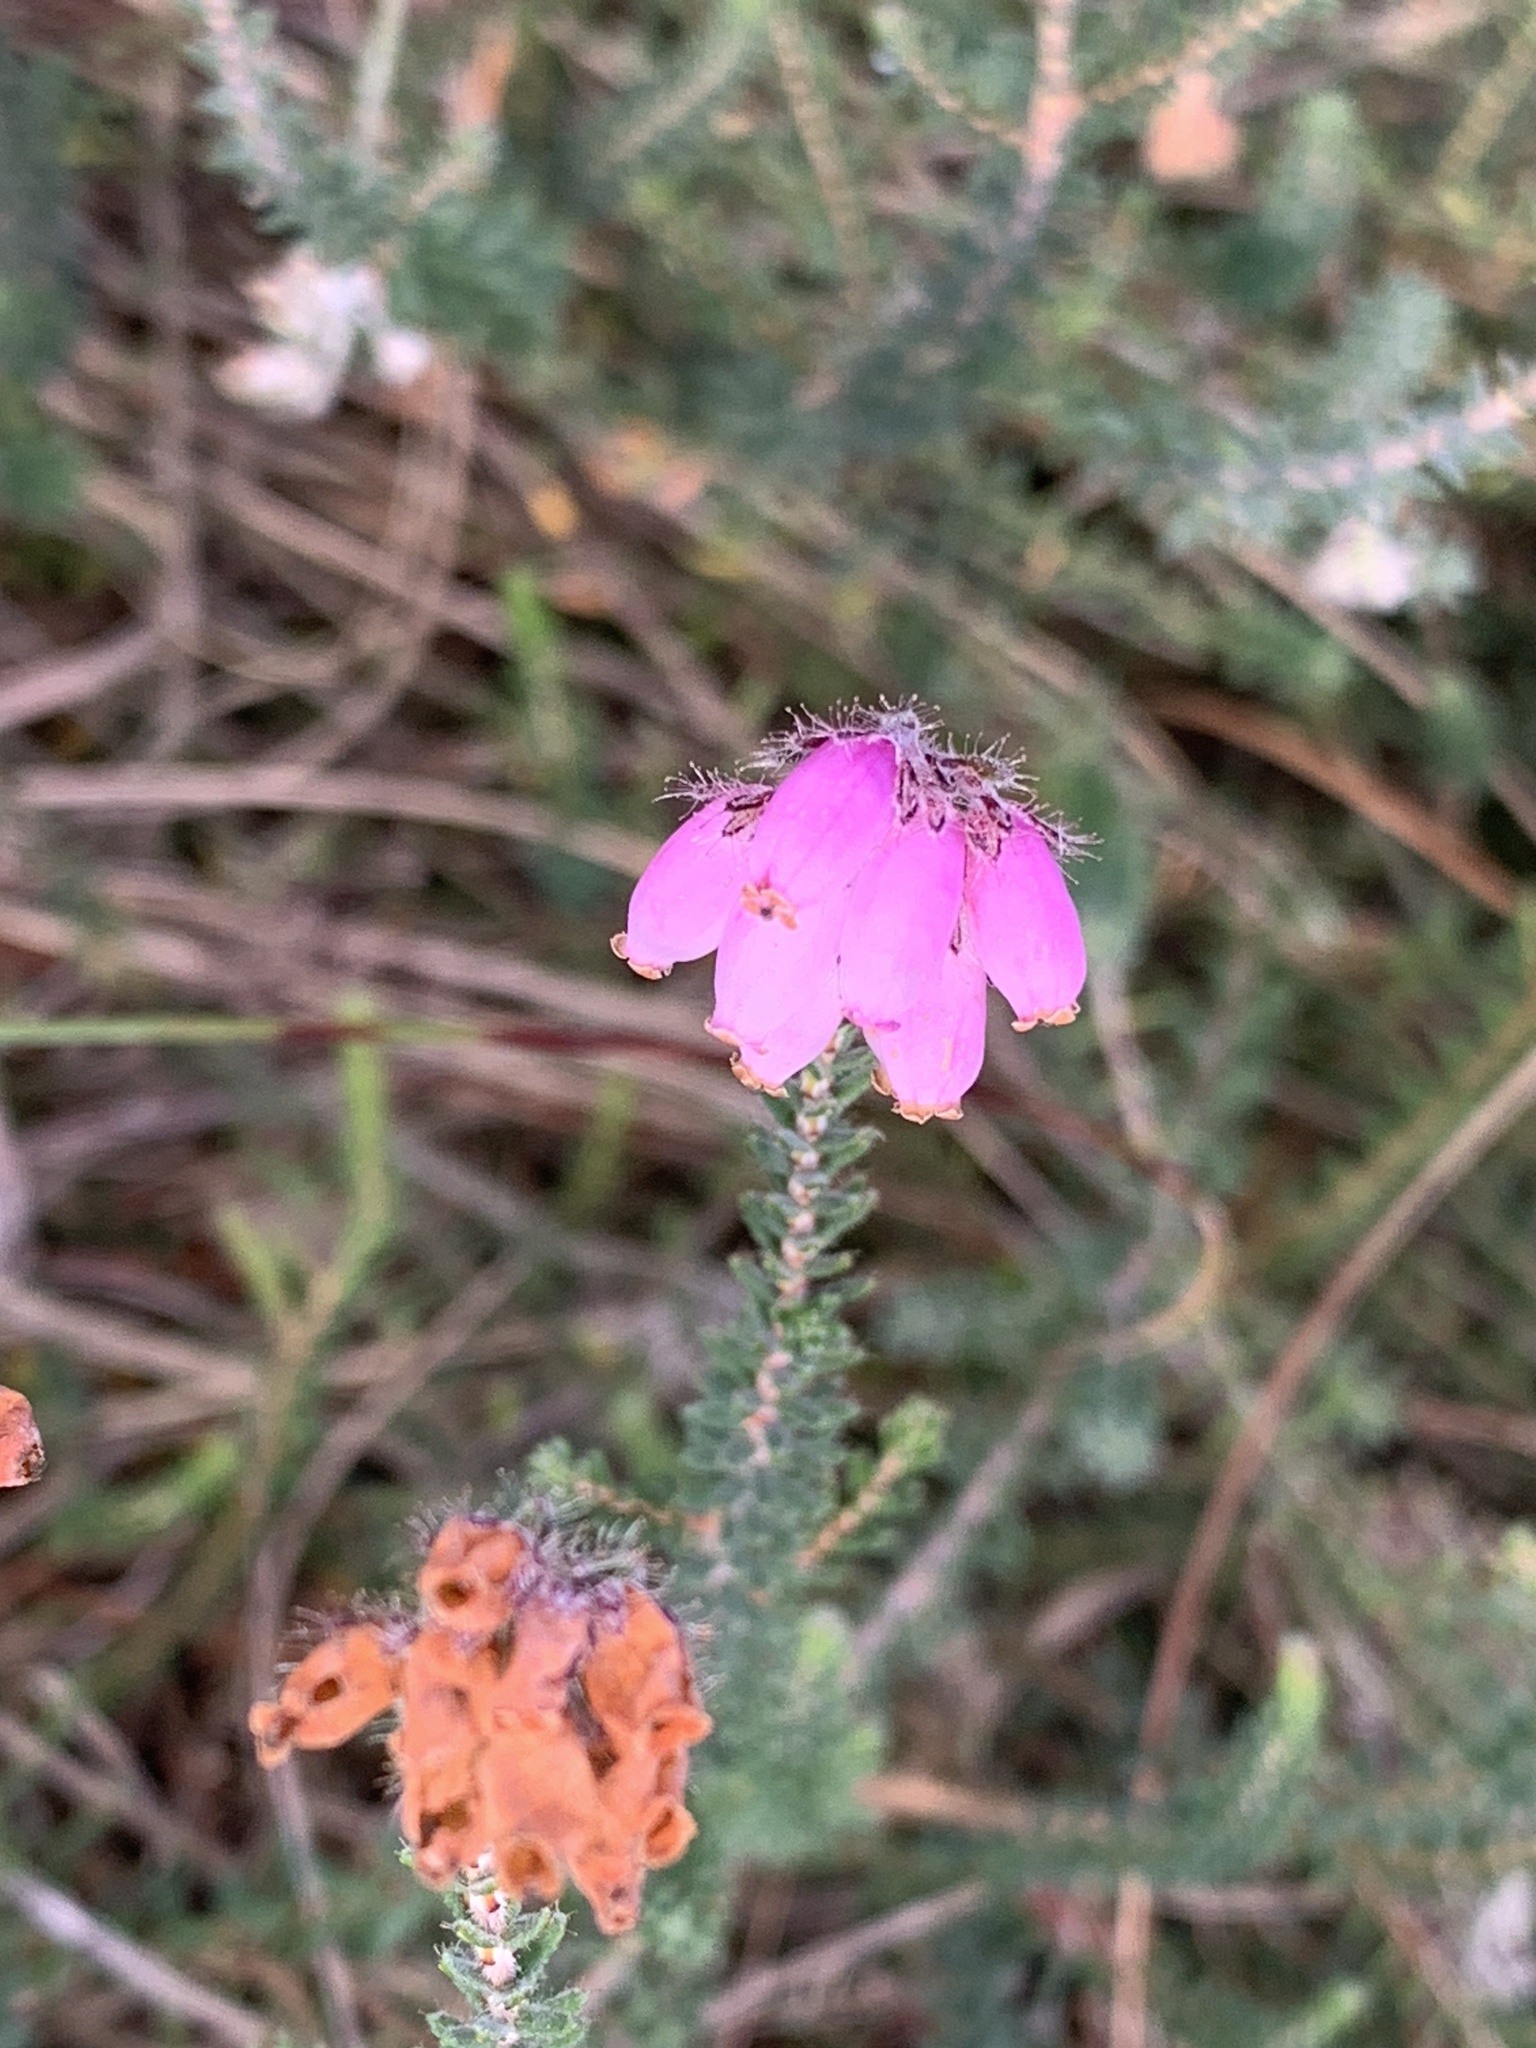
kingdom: Plantae
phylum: Tracheophyta
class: Magnoliopsida
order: Ericales
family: Ericaceae
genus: Erica
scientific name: Erica tetralix
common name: Cross-leaved heath
